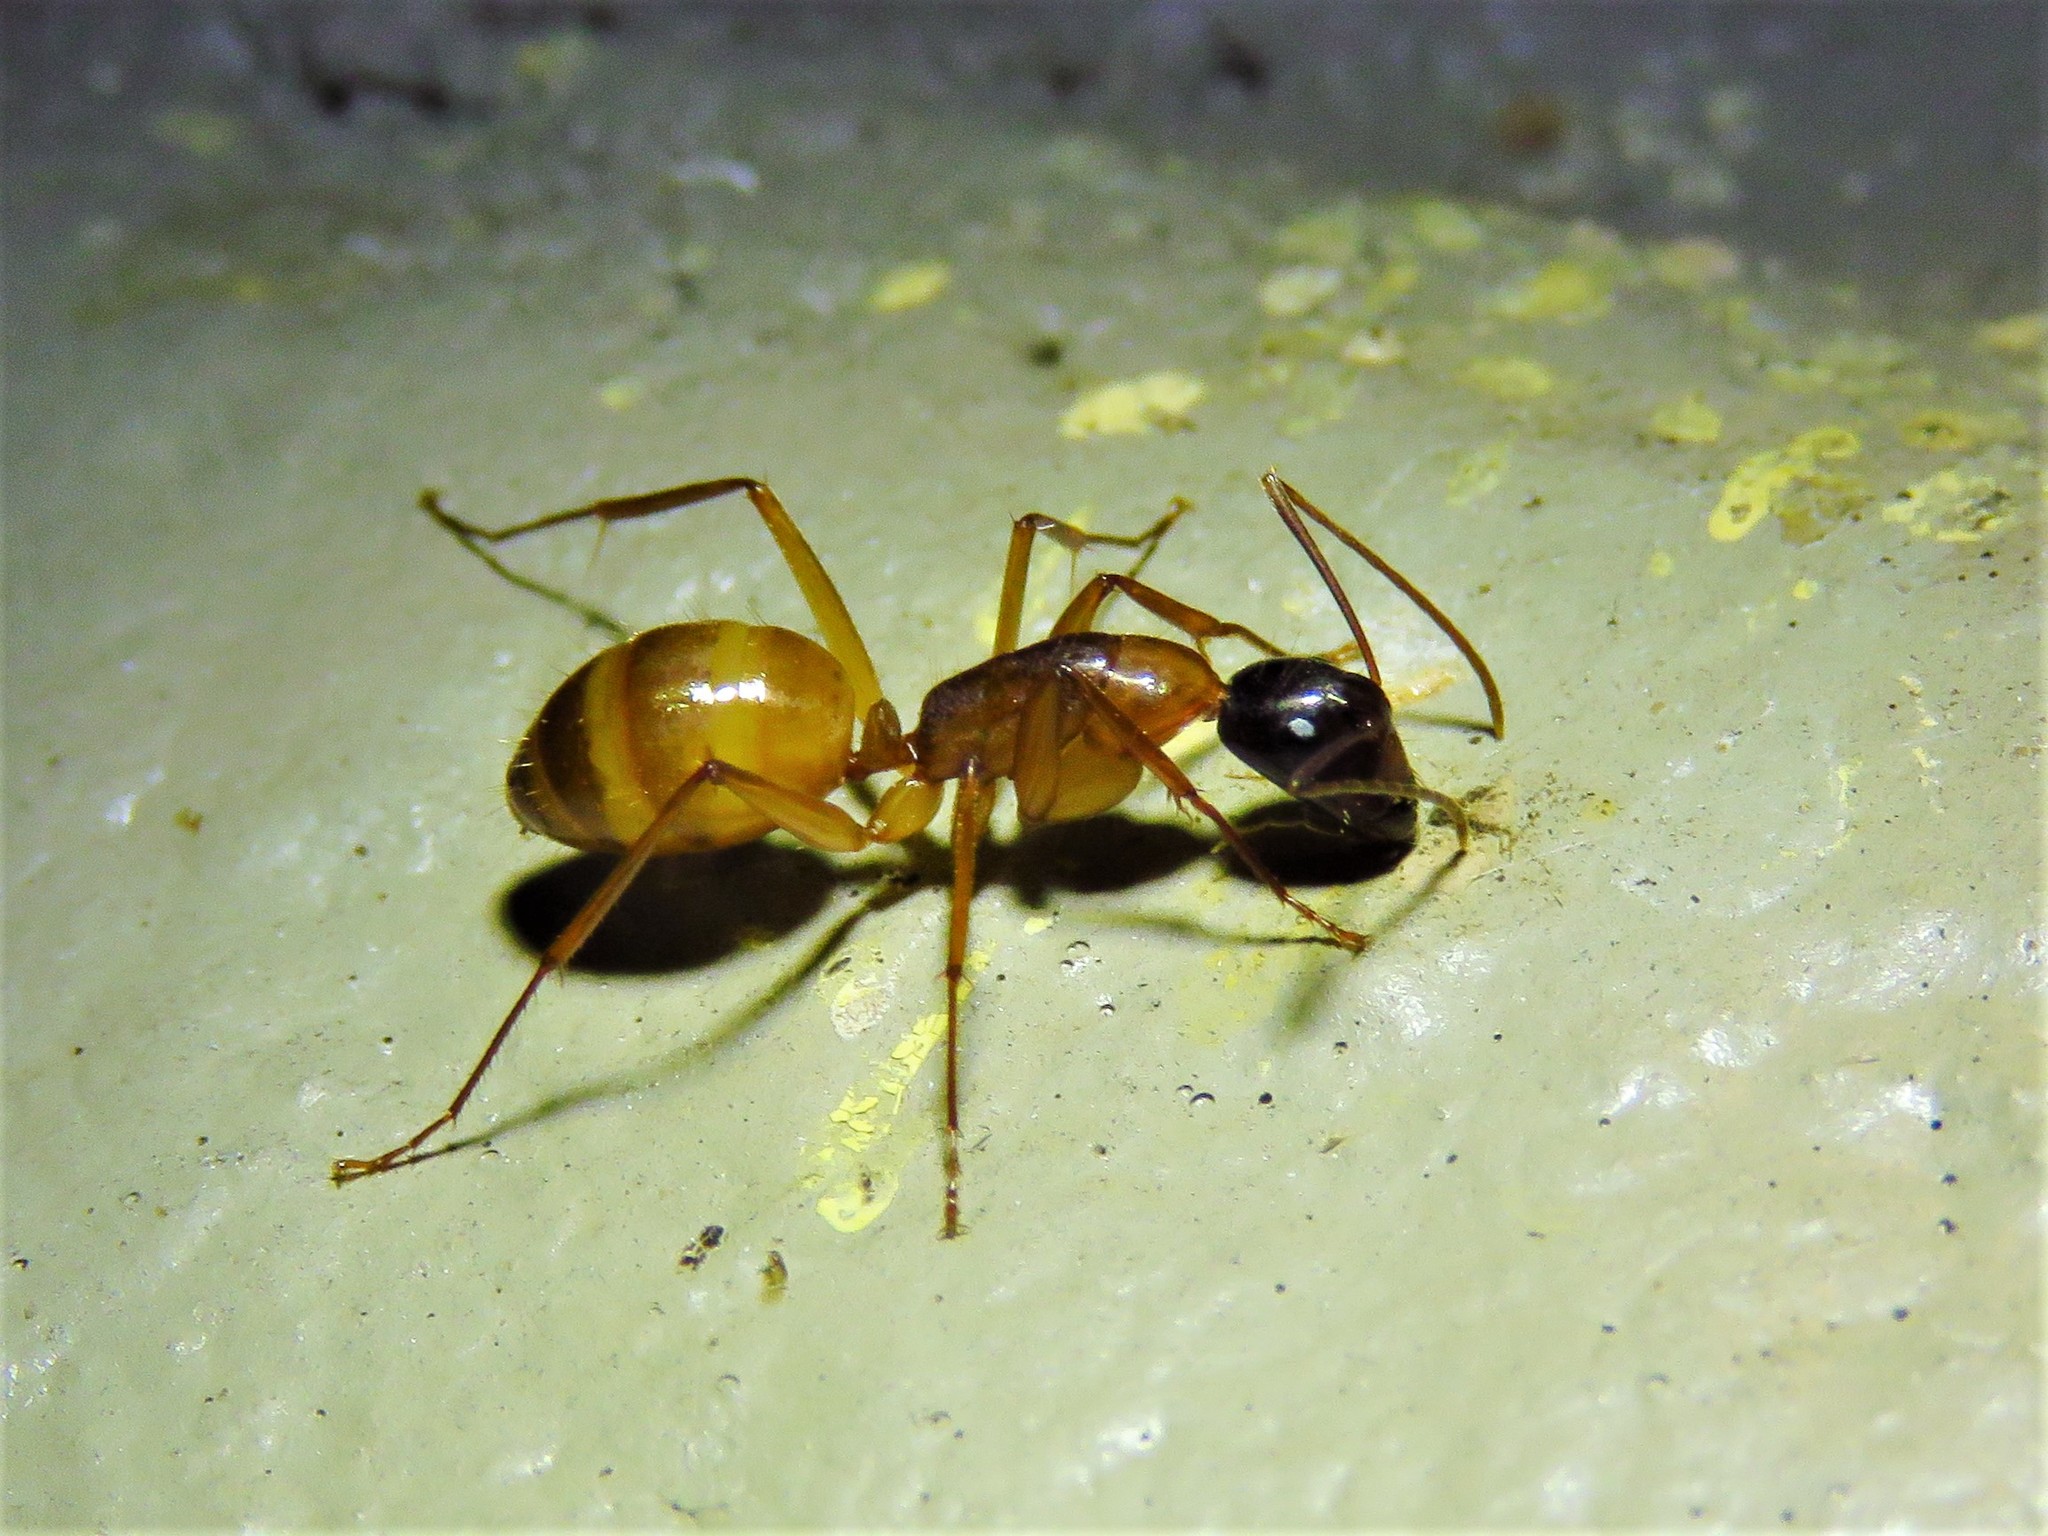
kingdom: Animalia
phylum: Arthropoda
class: Insecta
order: Hymenoptera
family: Formicidae
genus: Camponotus
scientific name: Camponotus americanus
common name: American carpenter ant
